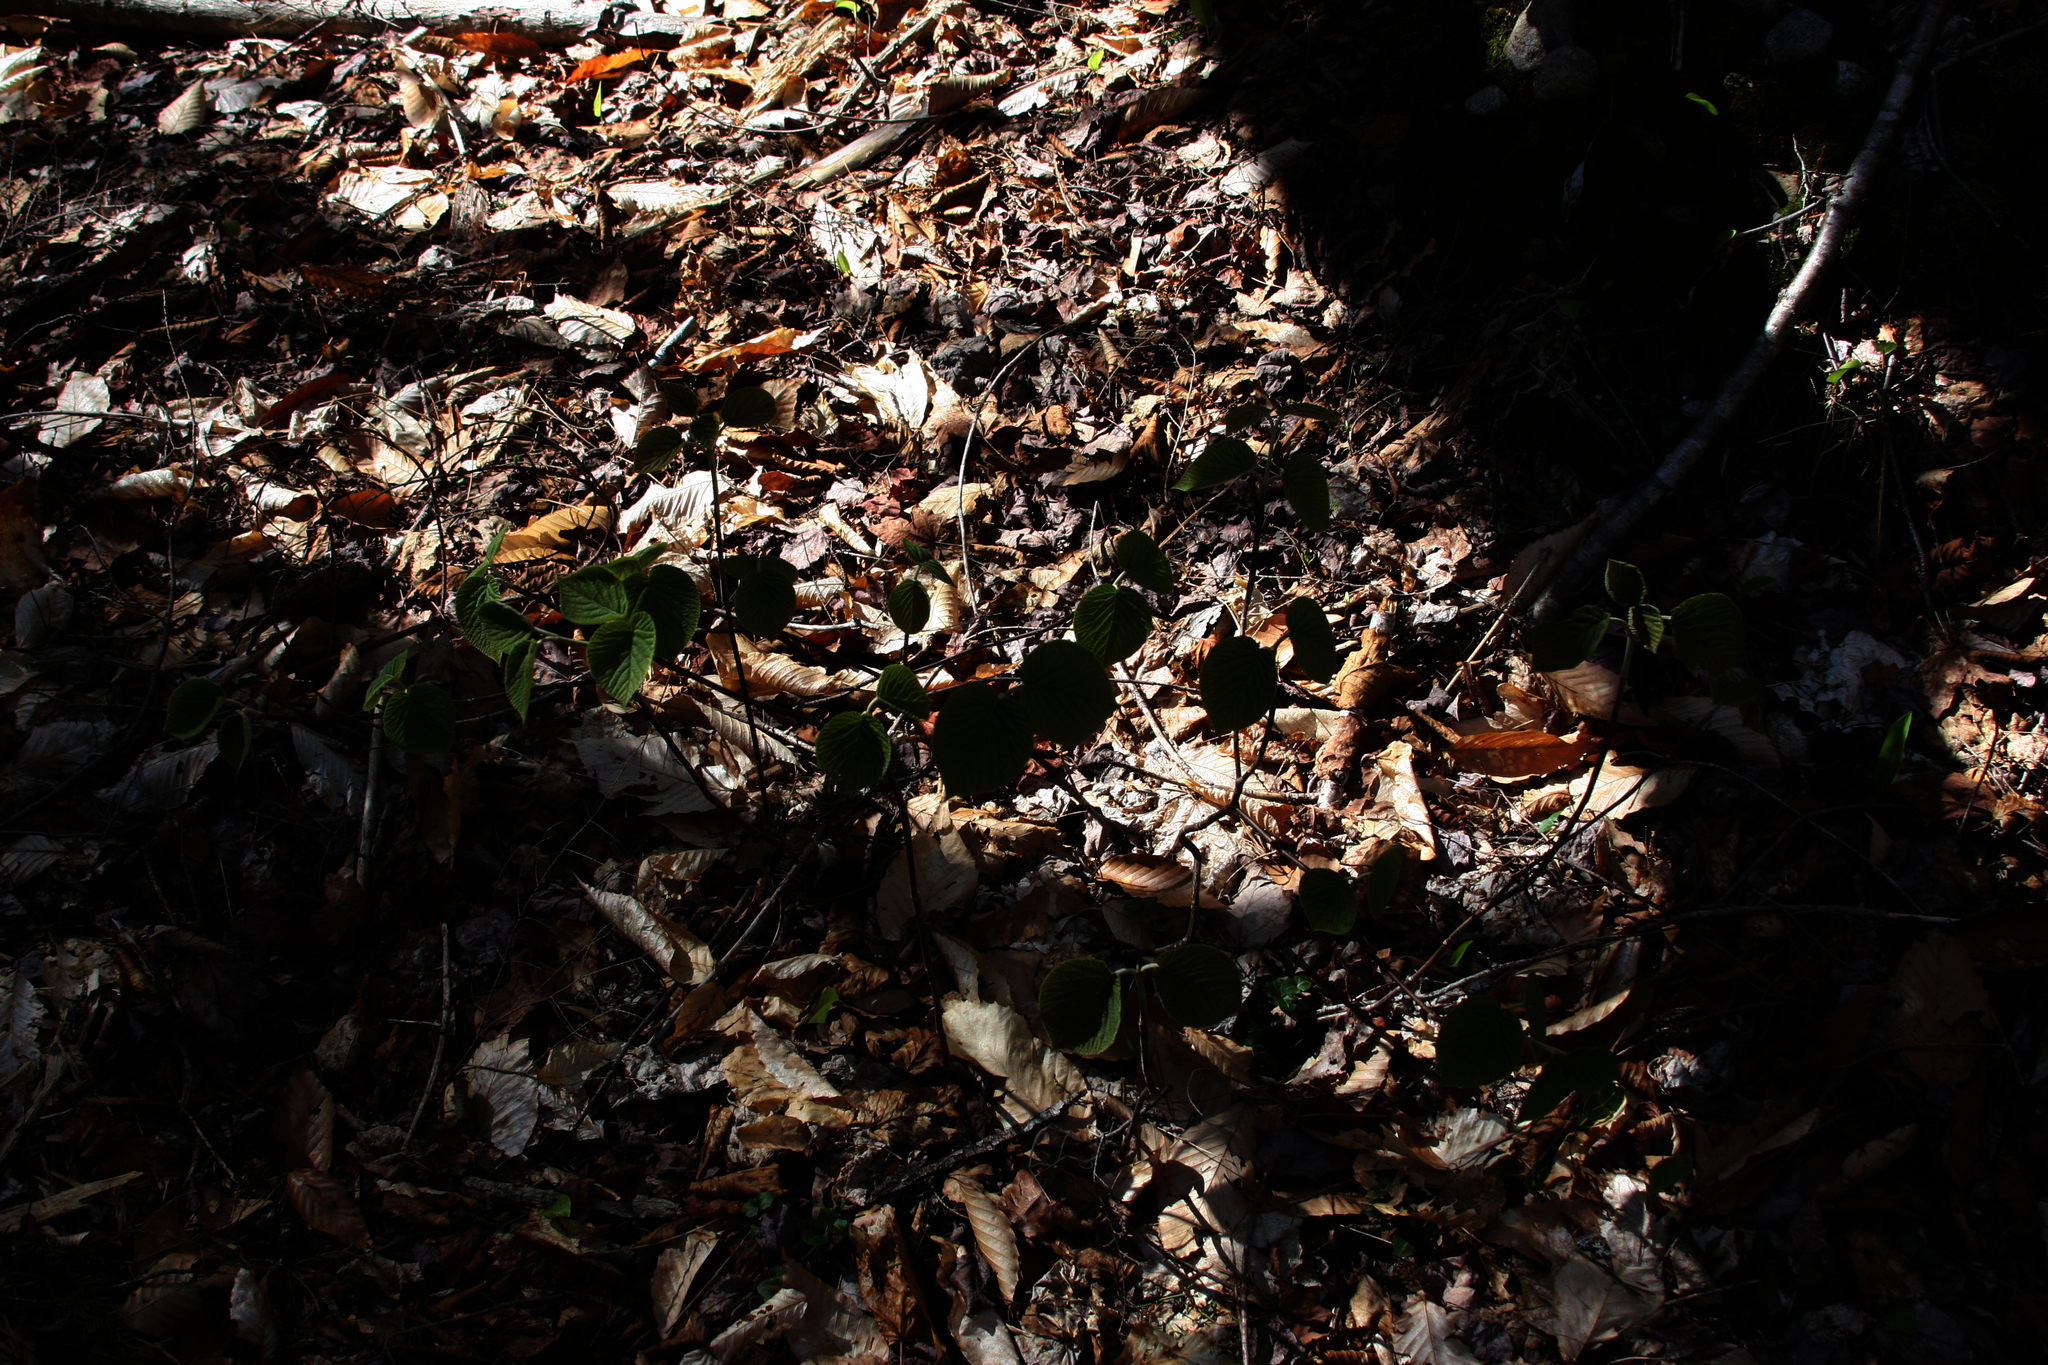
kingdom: Plantae
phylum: Tracheophyta
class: Magnoliopsida
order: Dipsacales
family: Viburnaceae
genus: Viburnum
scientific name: Viburnum lantanoides
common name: Hobblebush
